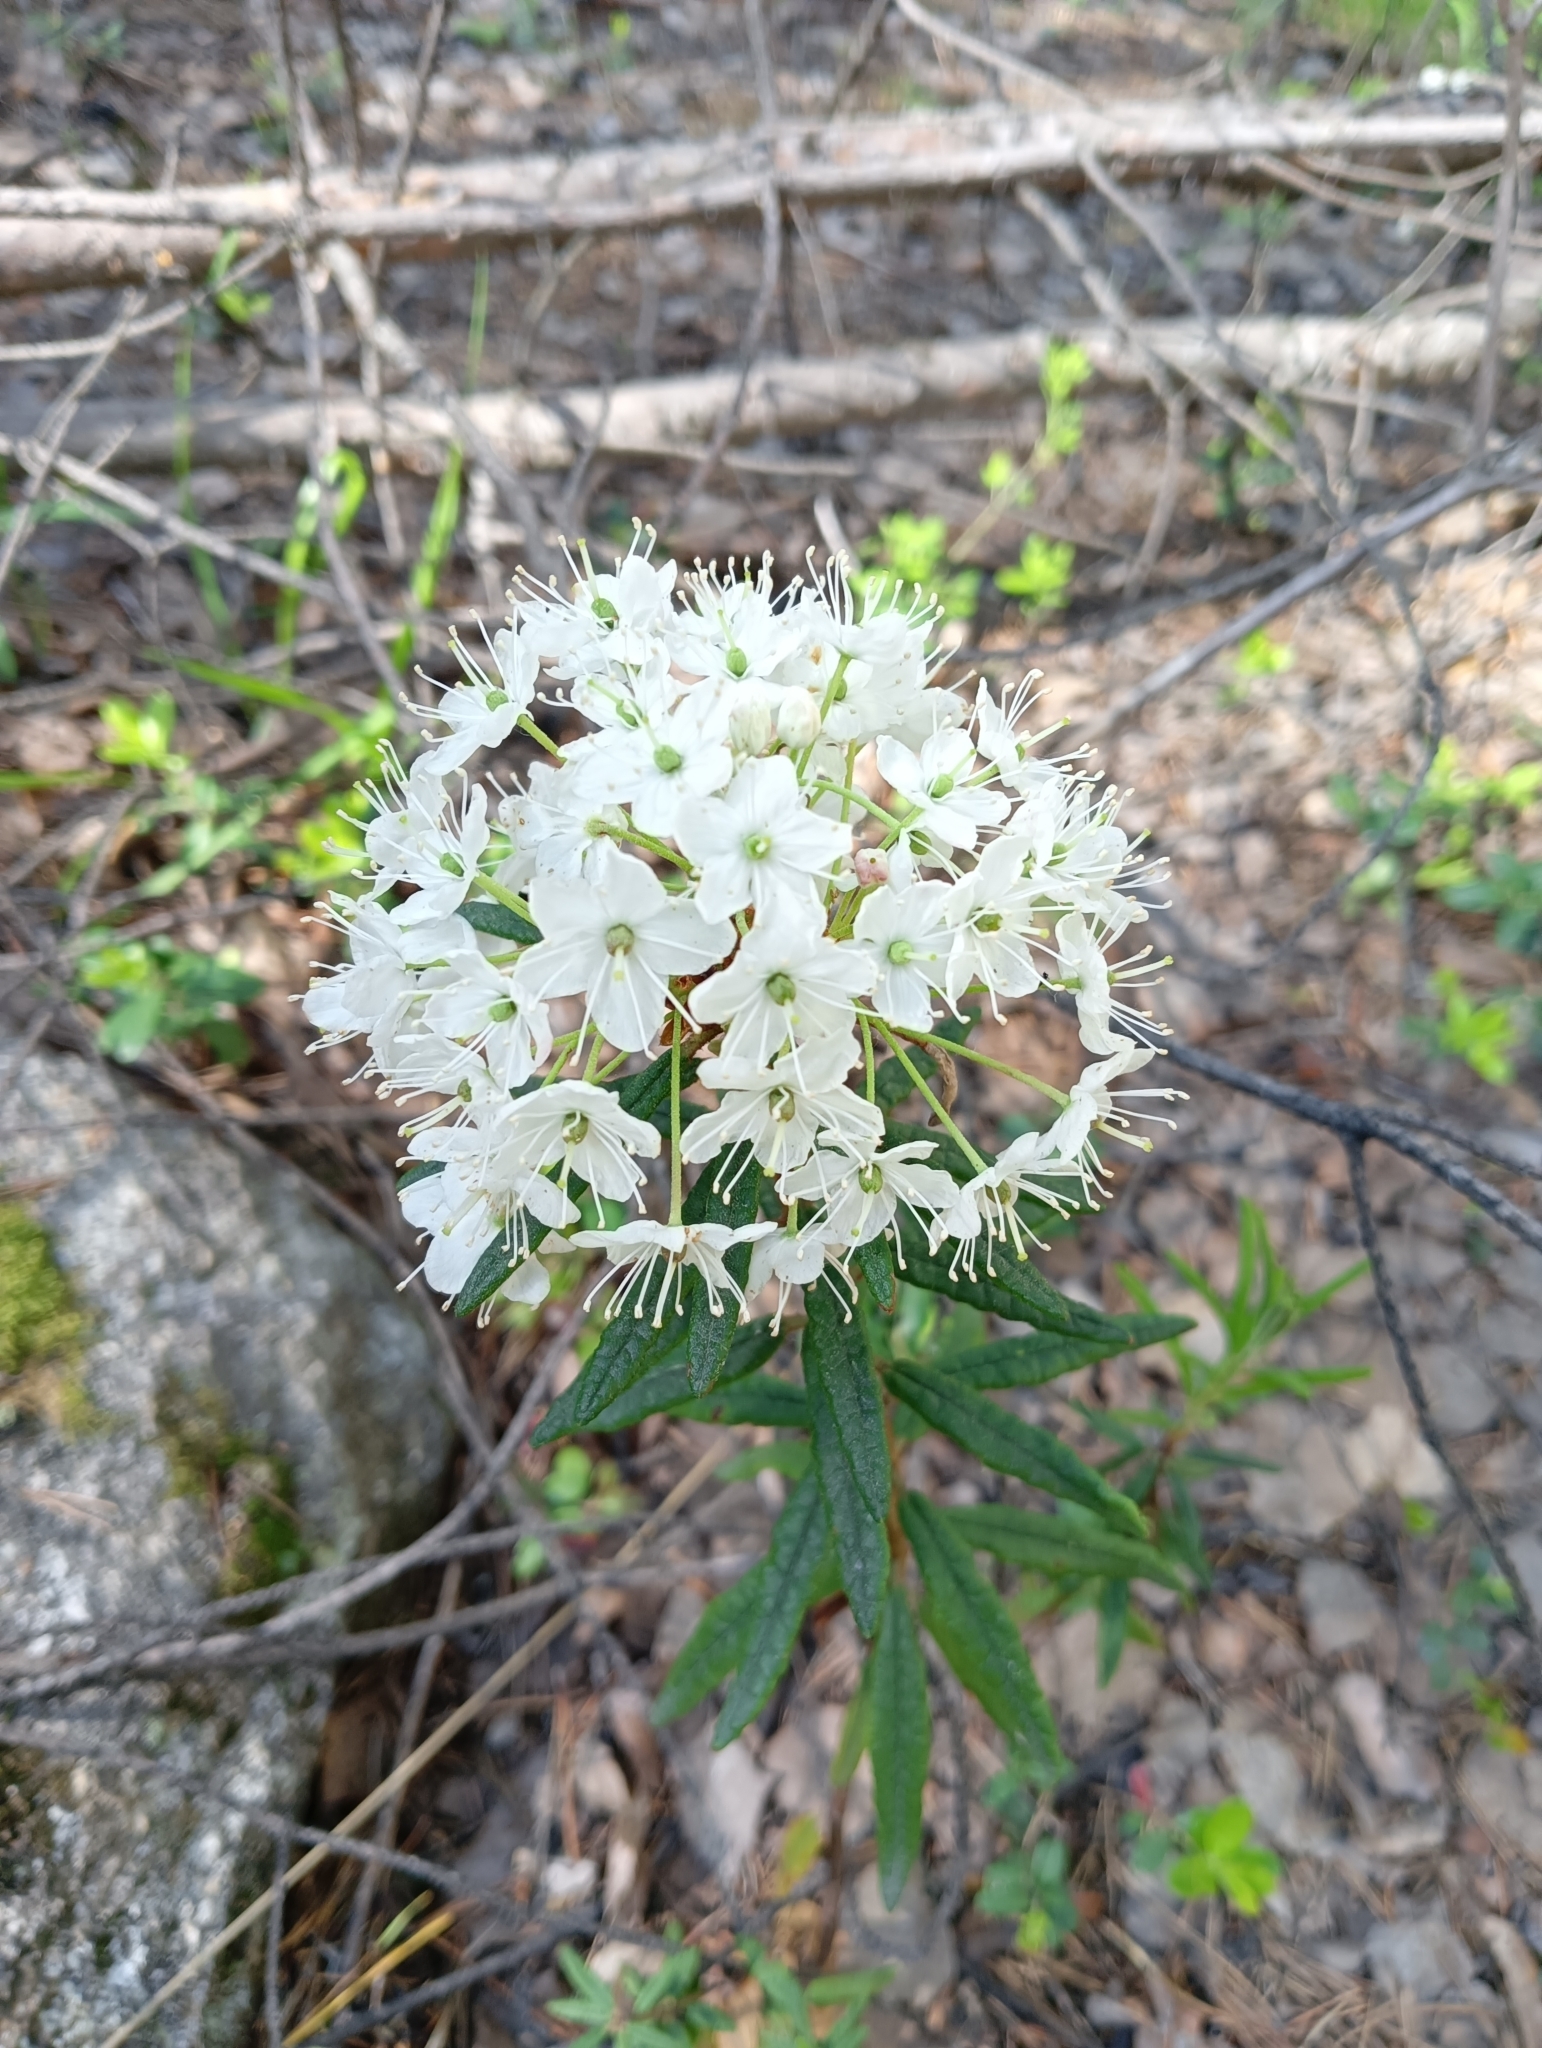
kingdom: Plantae
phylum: Tracheophyta
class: Magnoliopsida
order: Ericales
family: Ericaceae
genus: Rhododendron
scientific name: Rhododendron tomentosum
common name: Marsh labrador tea
